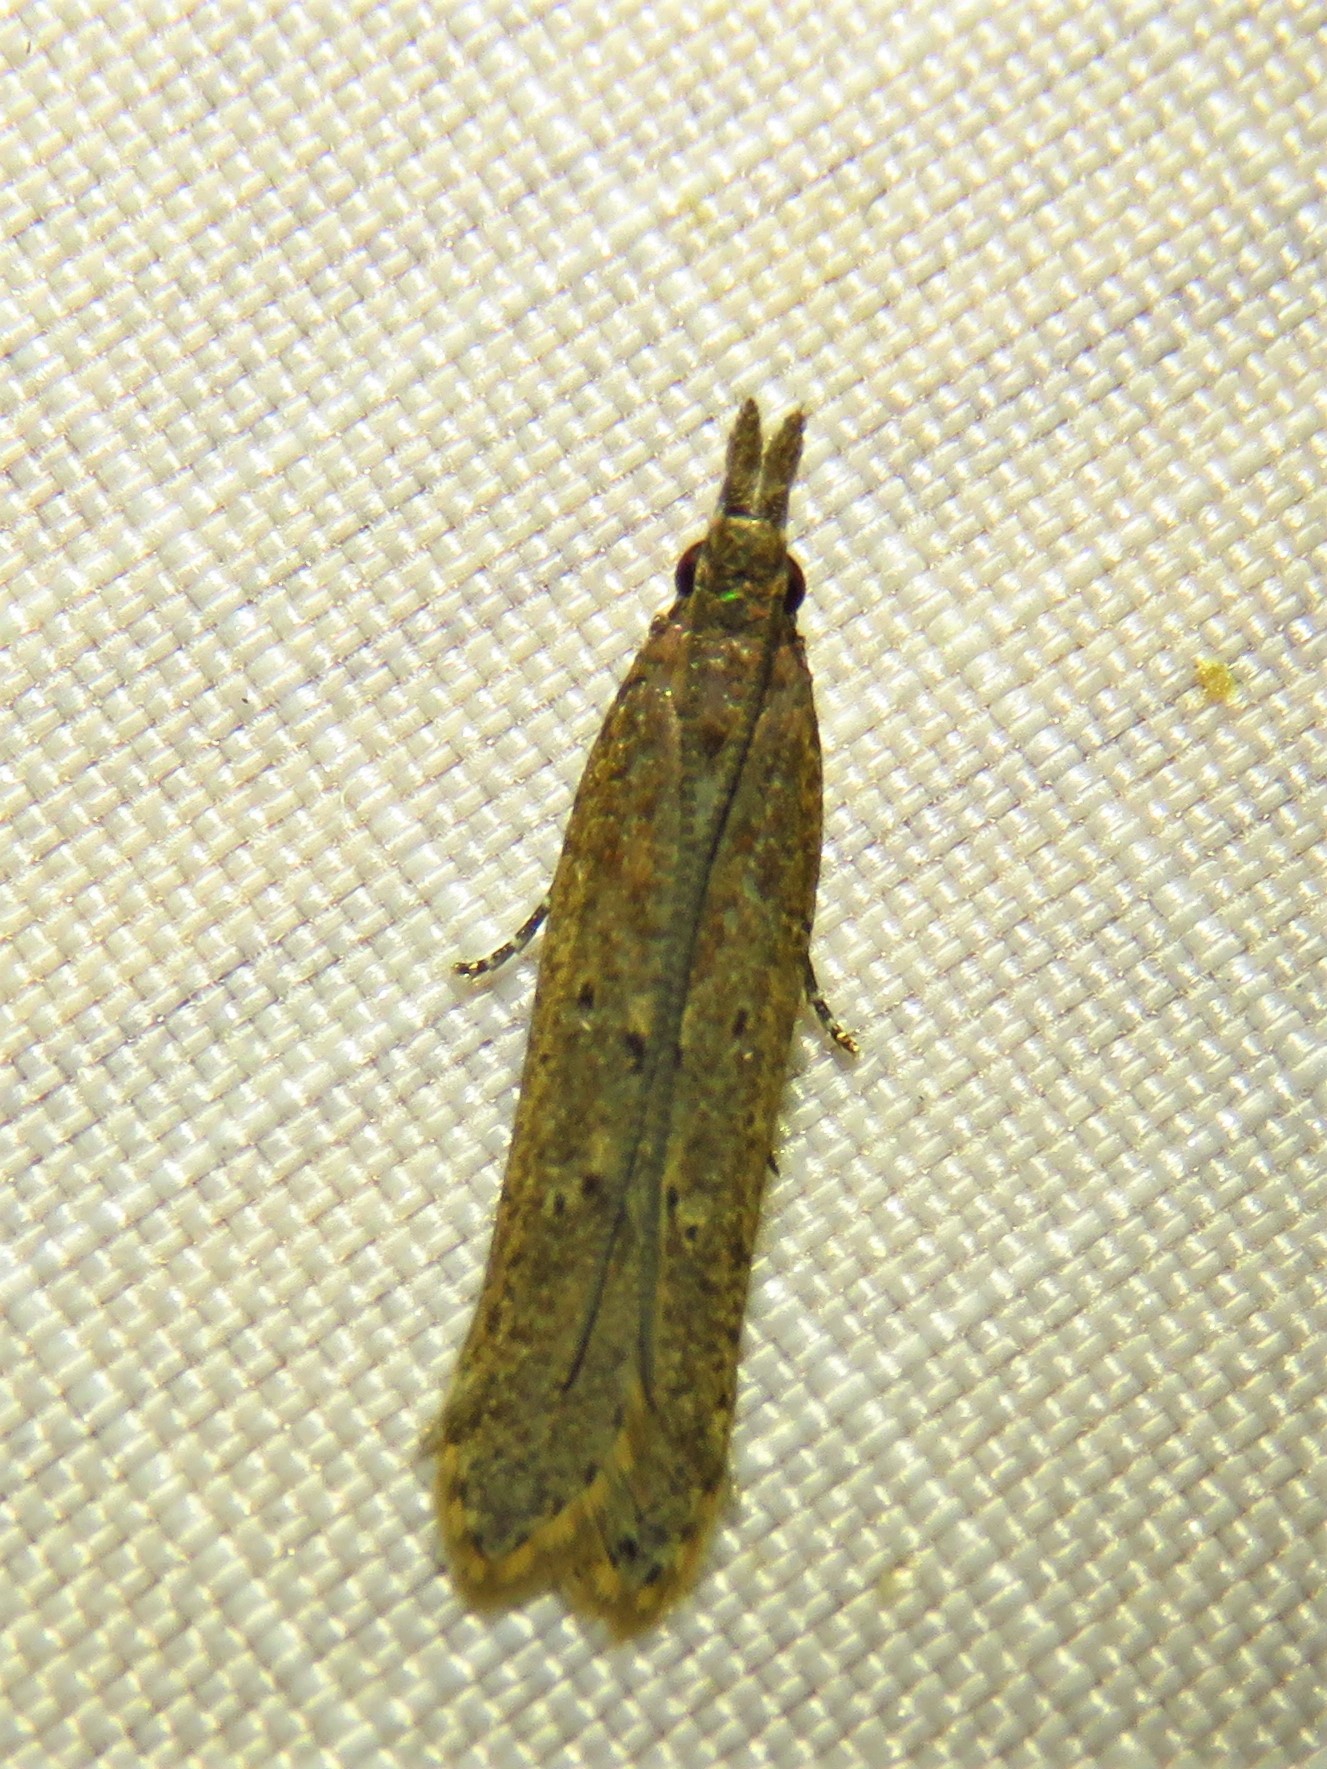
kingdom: Animalia
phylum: Arthropoda
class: Insecta
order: Lepidoptera
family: Gelechiidae
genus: Dichomeris
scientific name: Dichomeris ligulella
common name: Moth
